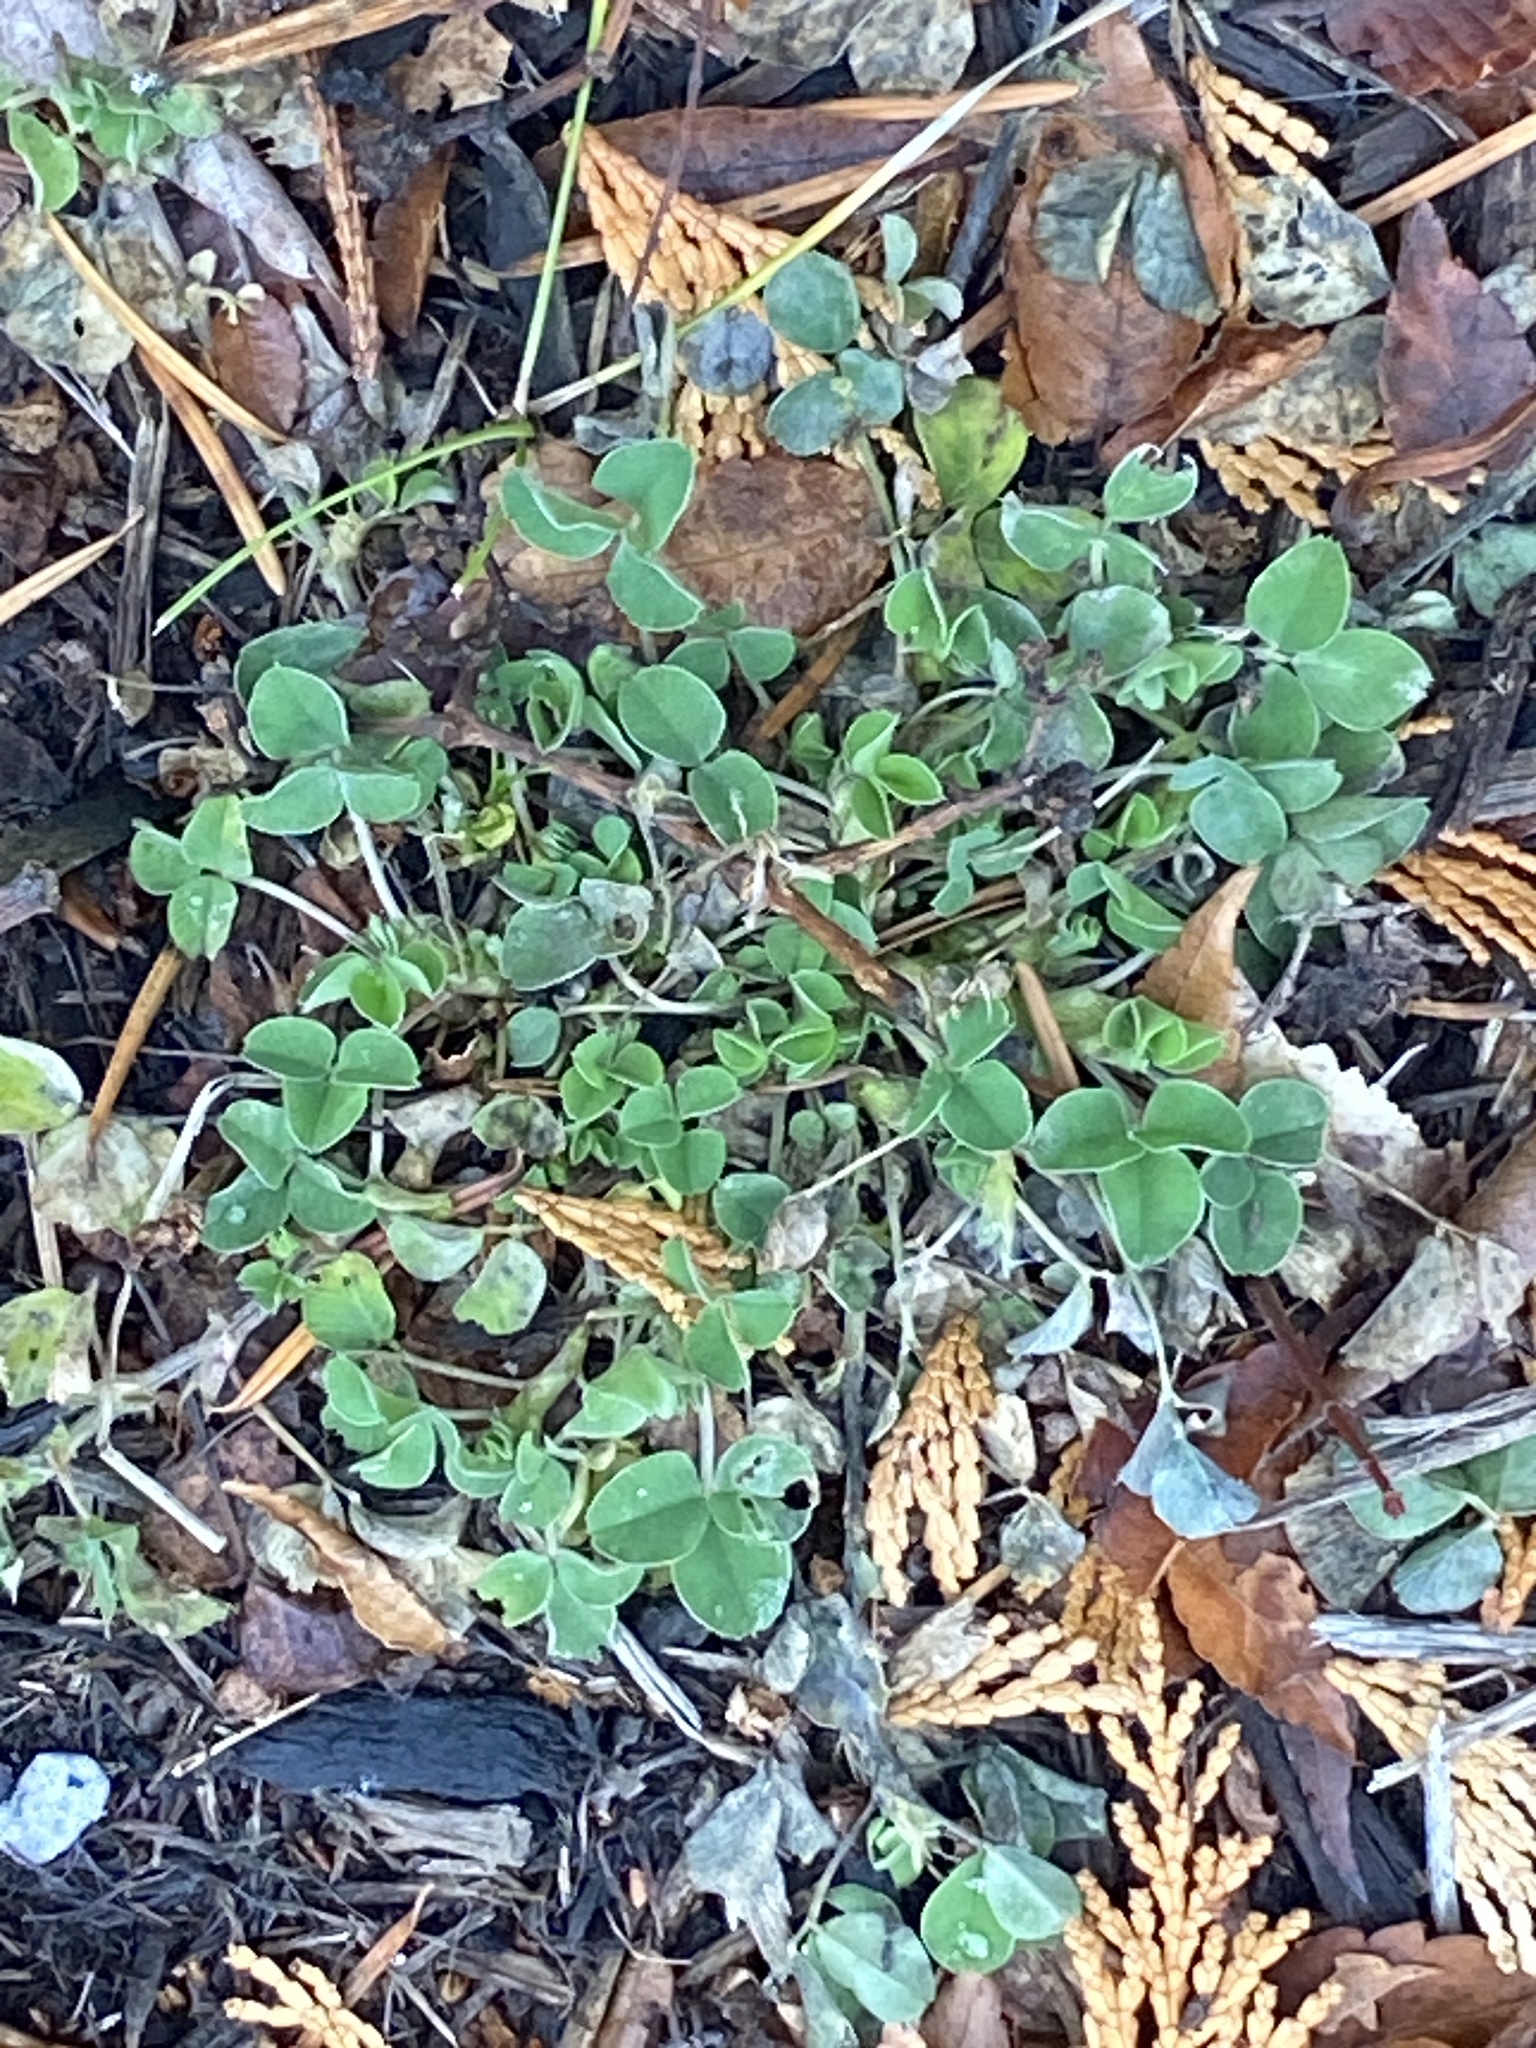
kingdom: Plantae
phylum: Tracheophyta
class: Magnoliopsida
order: Fabales
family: Fabaceae
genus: Medicago
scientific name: Medicago lupulina
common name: Black medick
